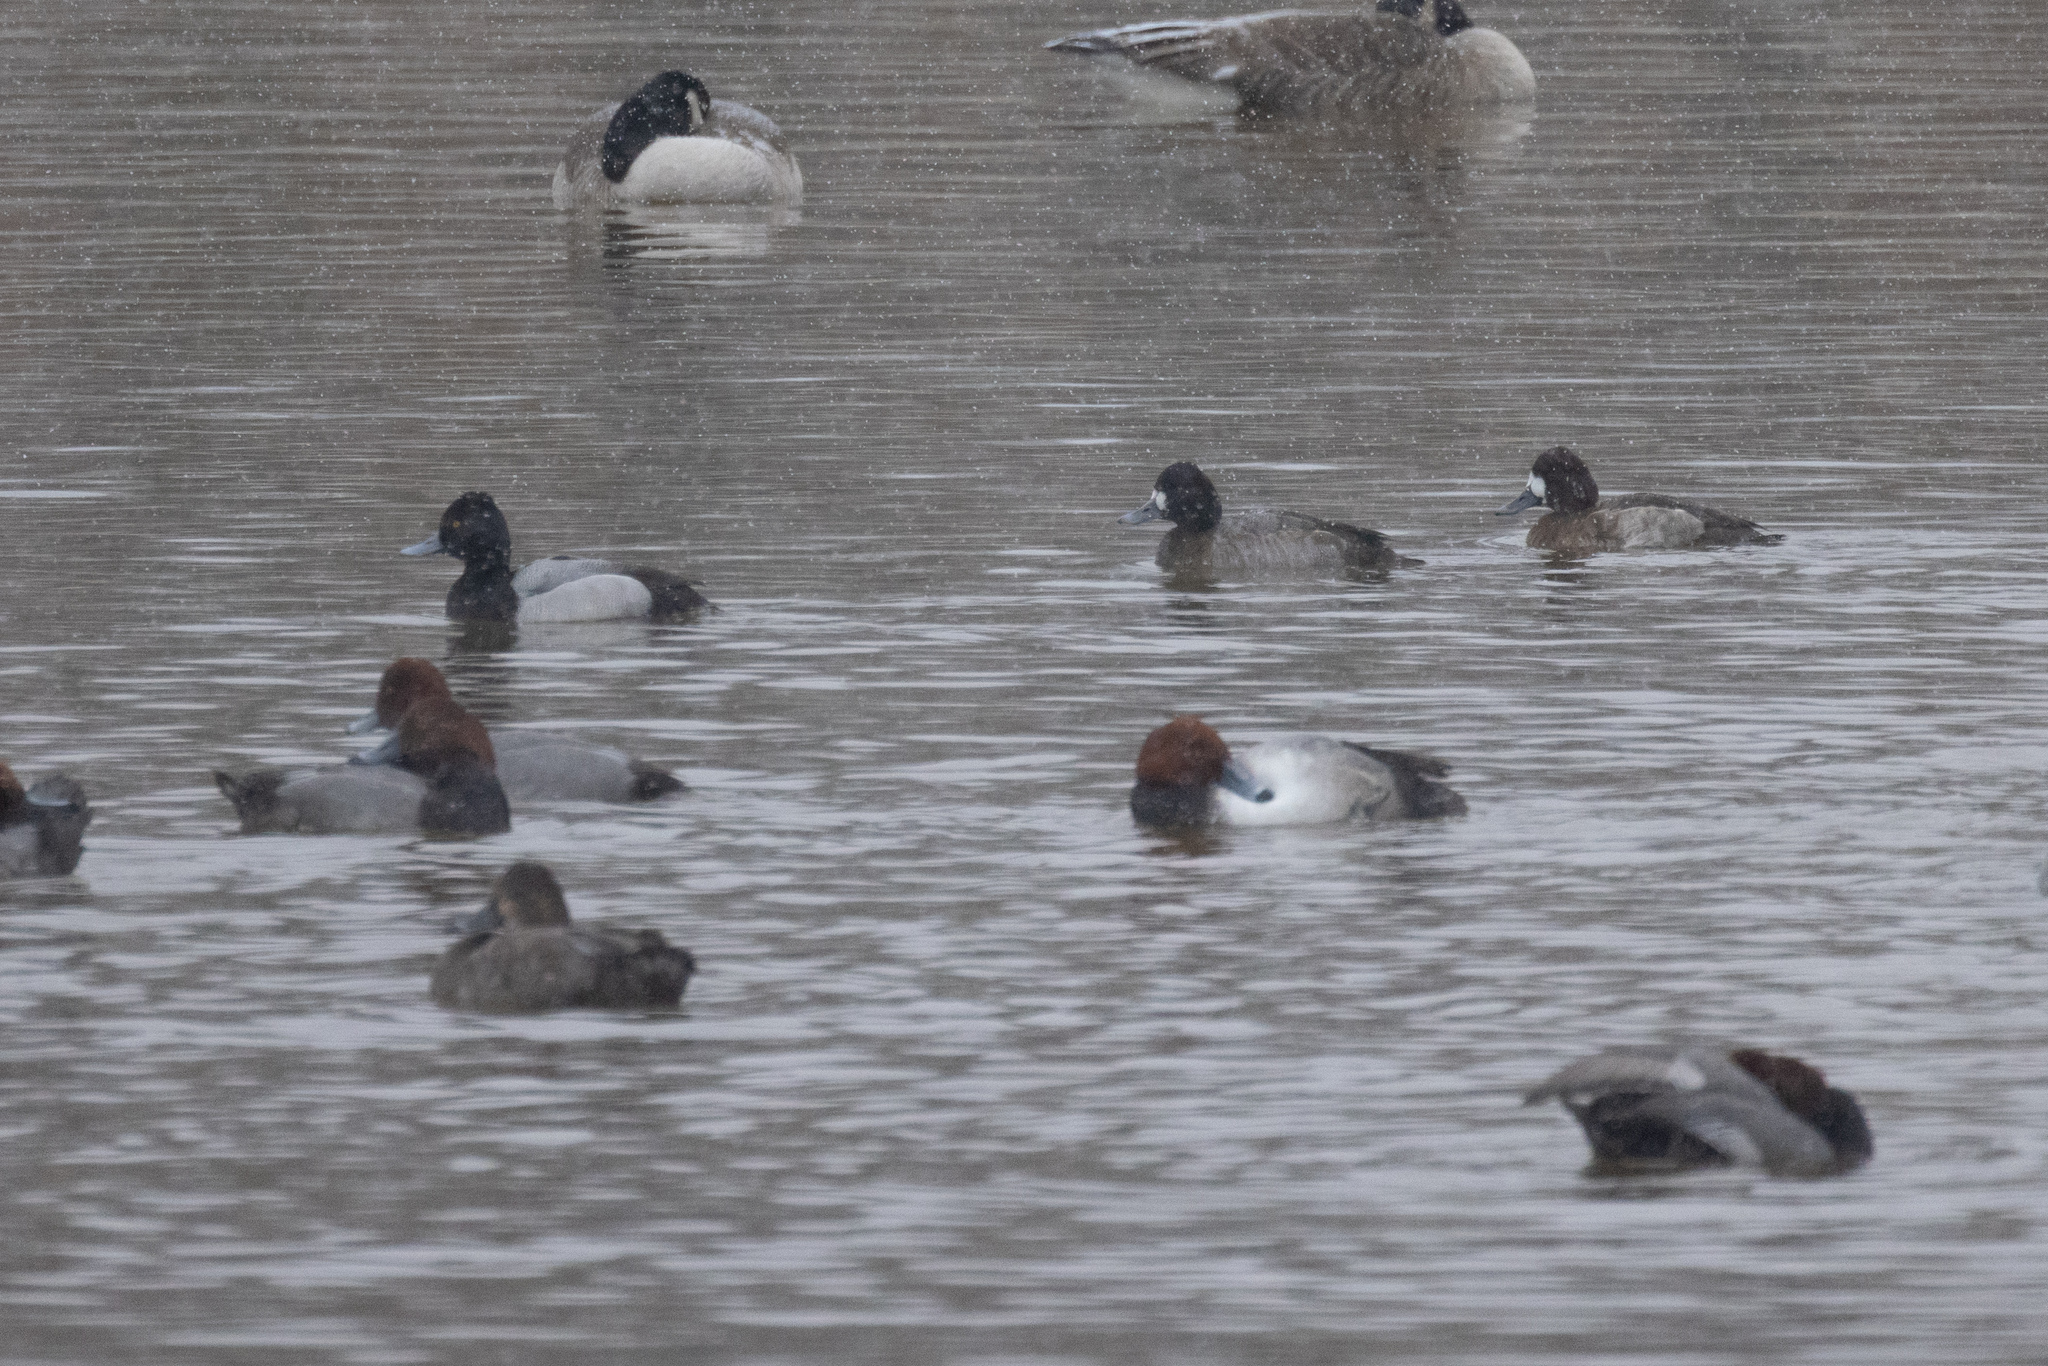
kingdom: Animalia
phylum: Chordata
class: Aves
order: Anseriformes
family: Anatidae
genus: Aythya
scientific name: Aythya affinis
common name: Lesser scaup
